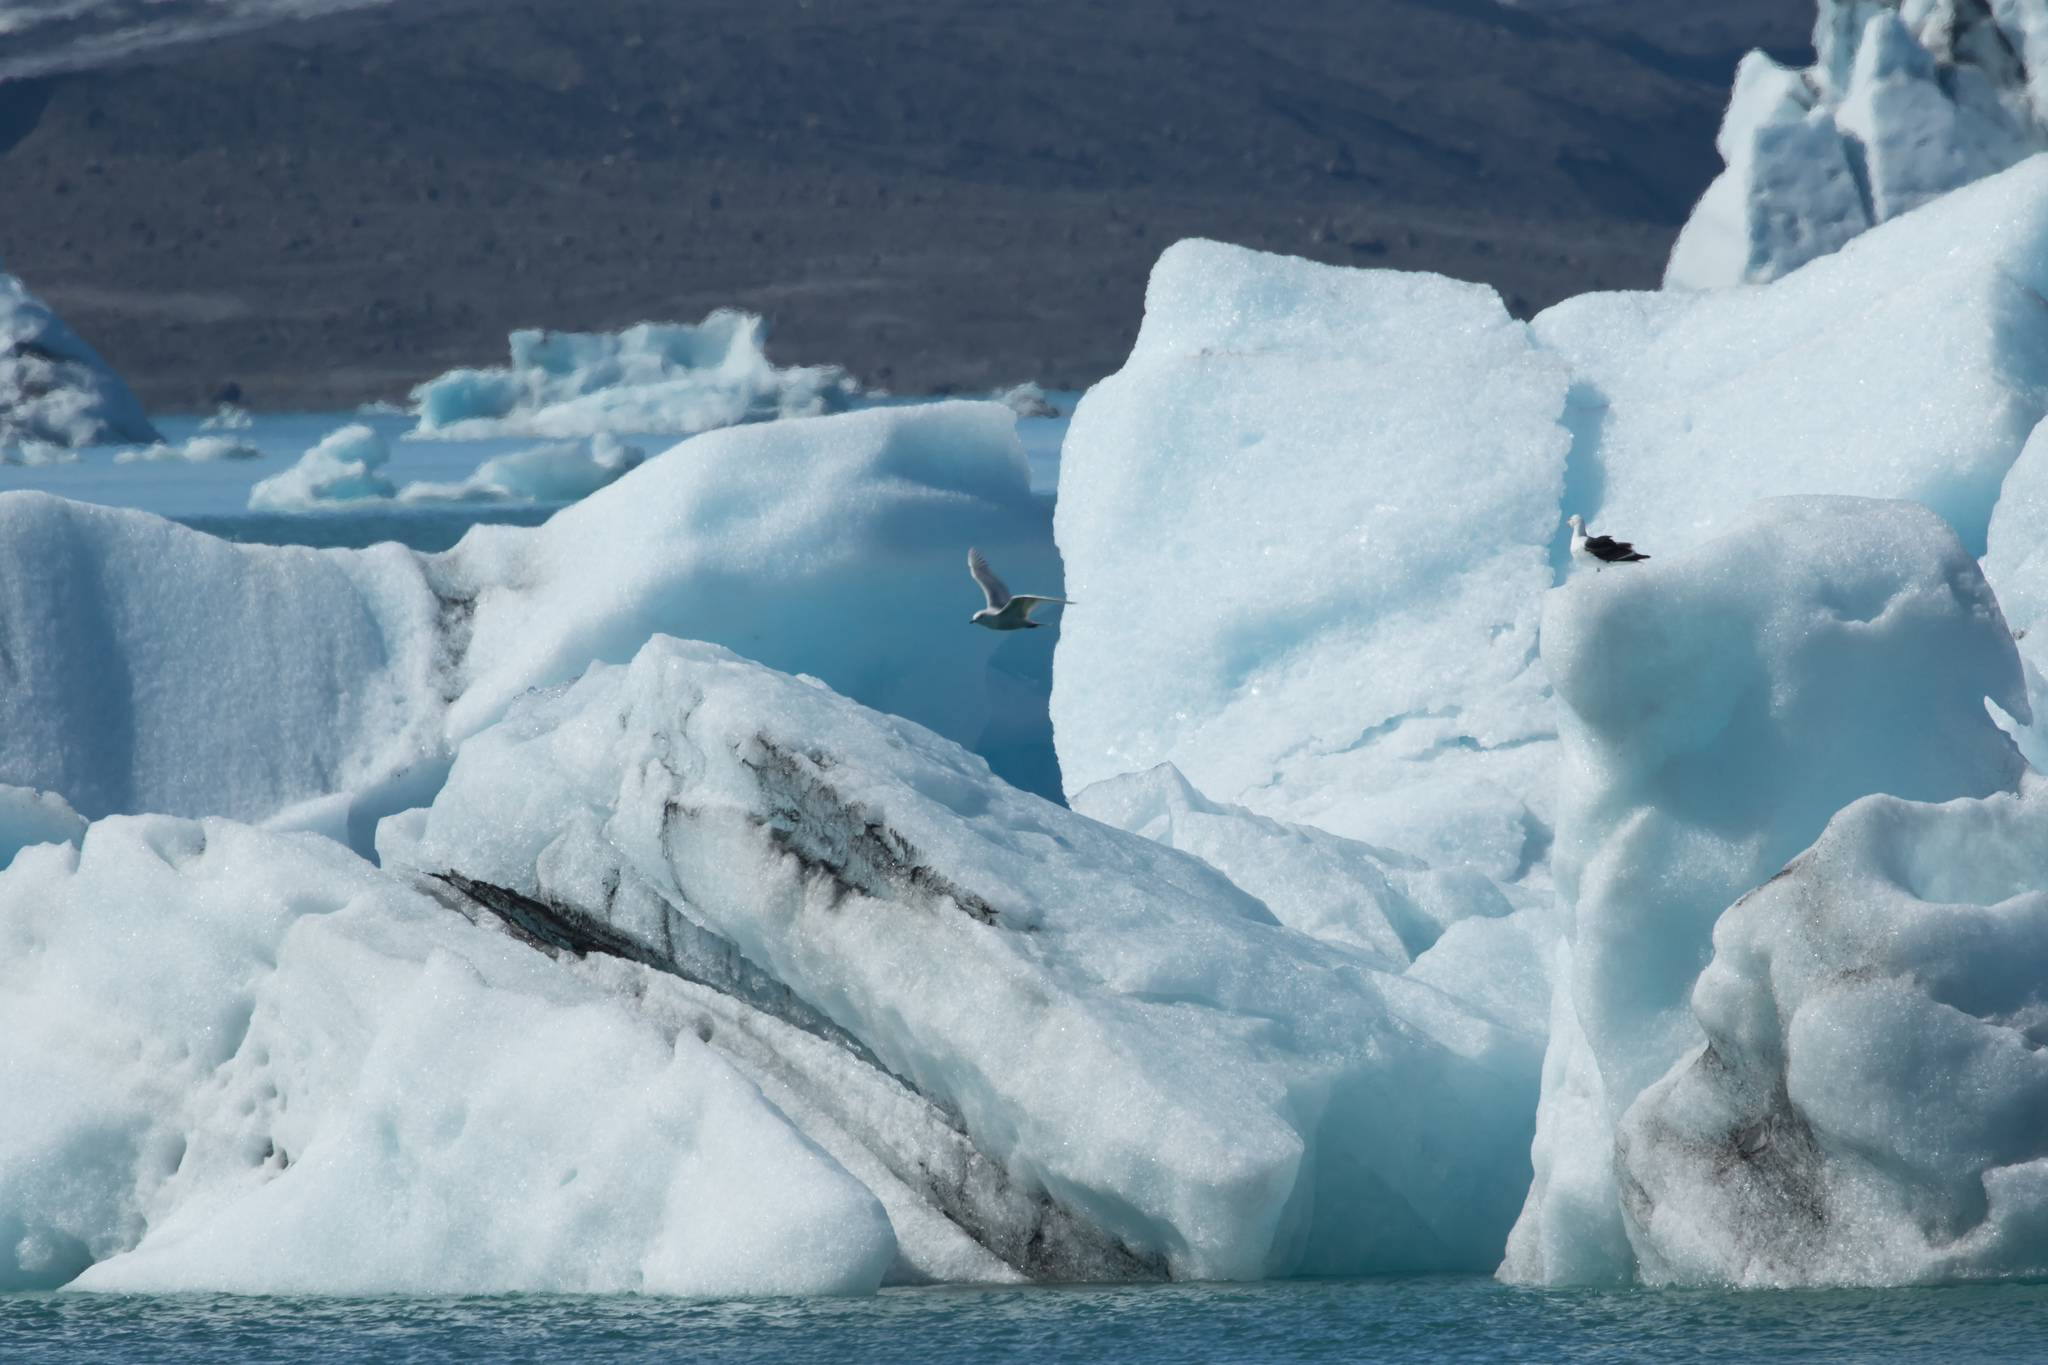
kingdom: Animalia
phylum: Chordata
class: Aves
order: Charadriiformes
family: Laridae
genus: Larus
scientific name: Larus glaucoides
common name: Iceland gull
